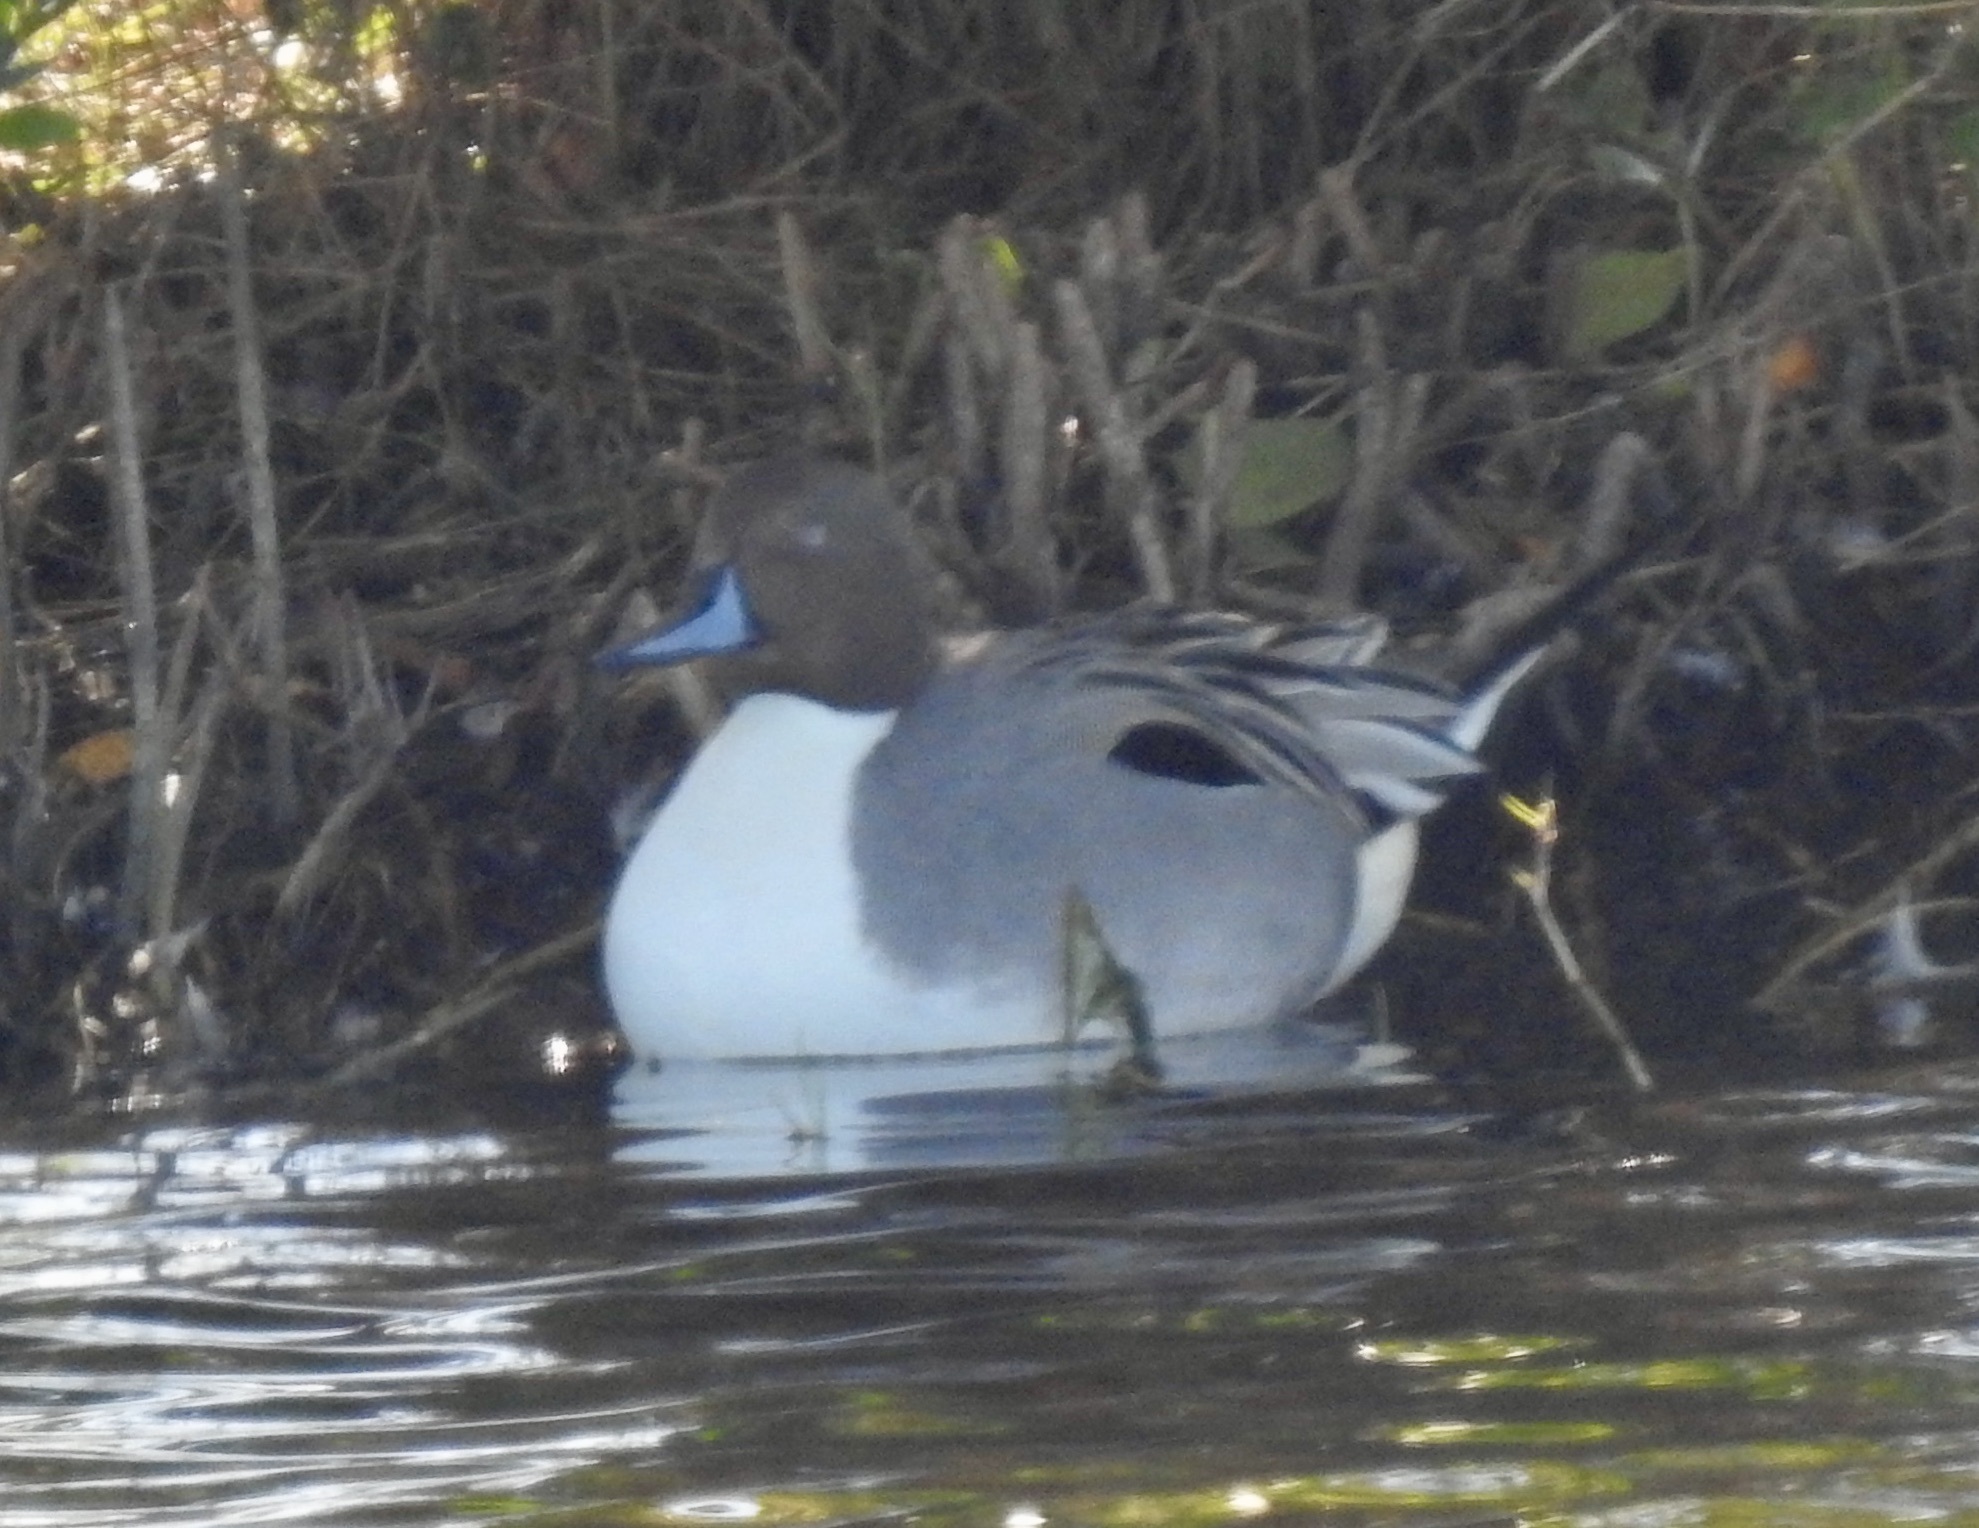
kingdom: Animalia
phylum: Chordata
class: Aves
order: Anseriformes
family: Anatidae
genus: Anas
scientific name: Anas acuta
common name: Northern pintail
